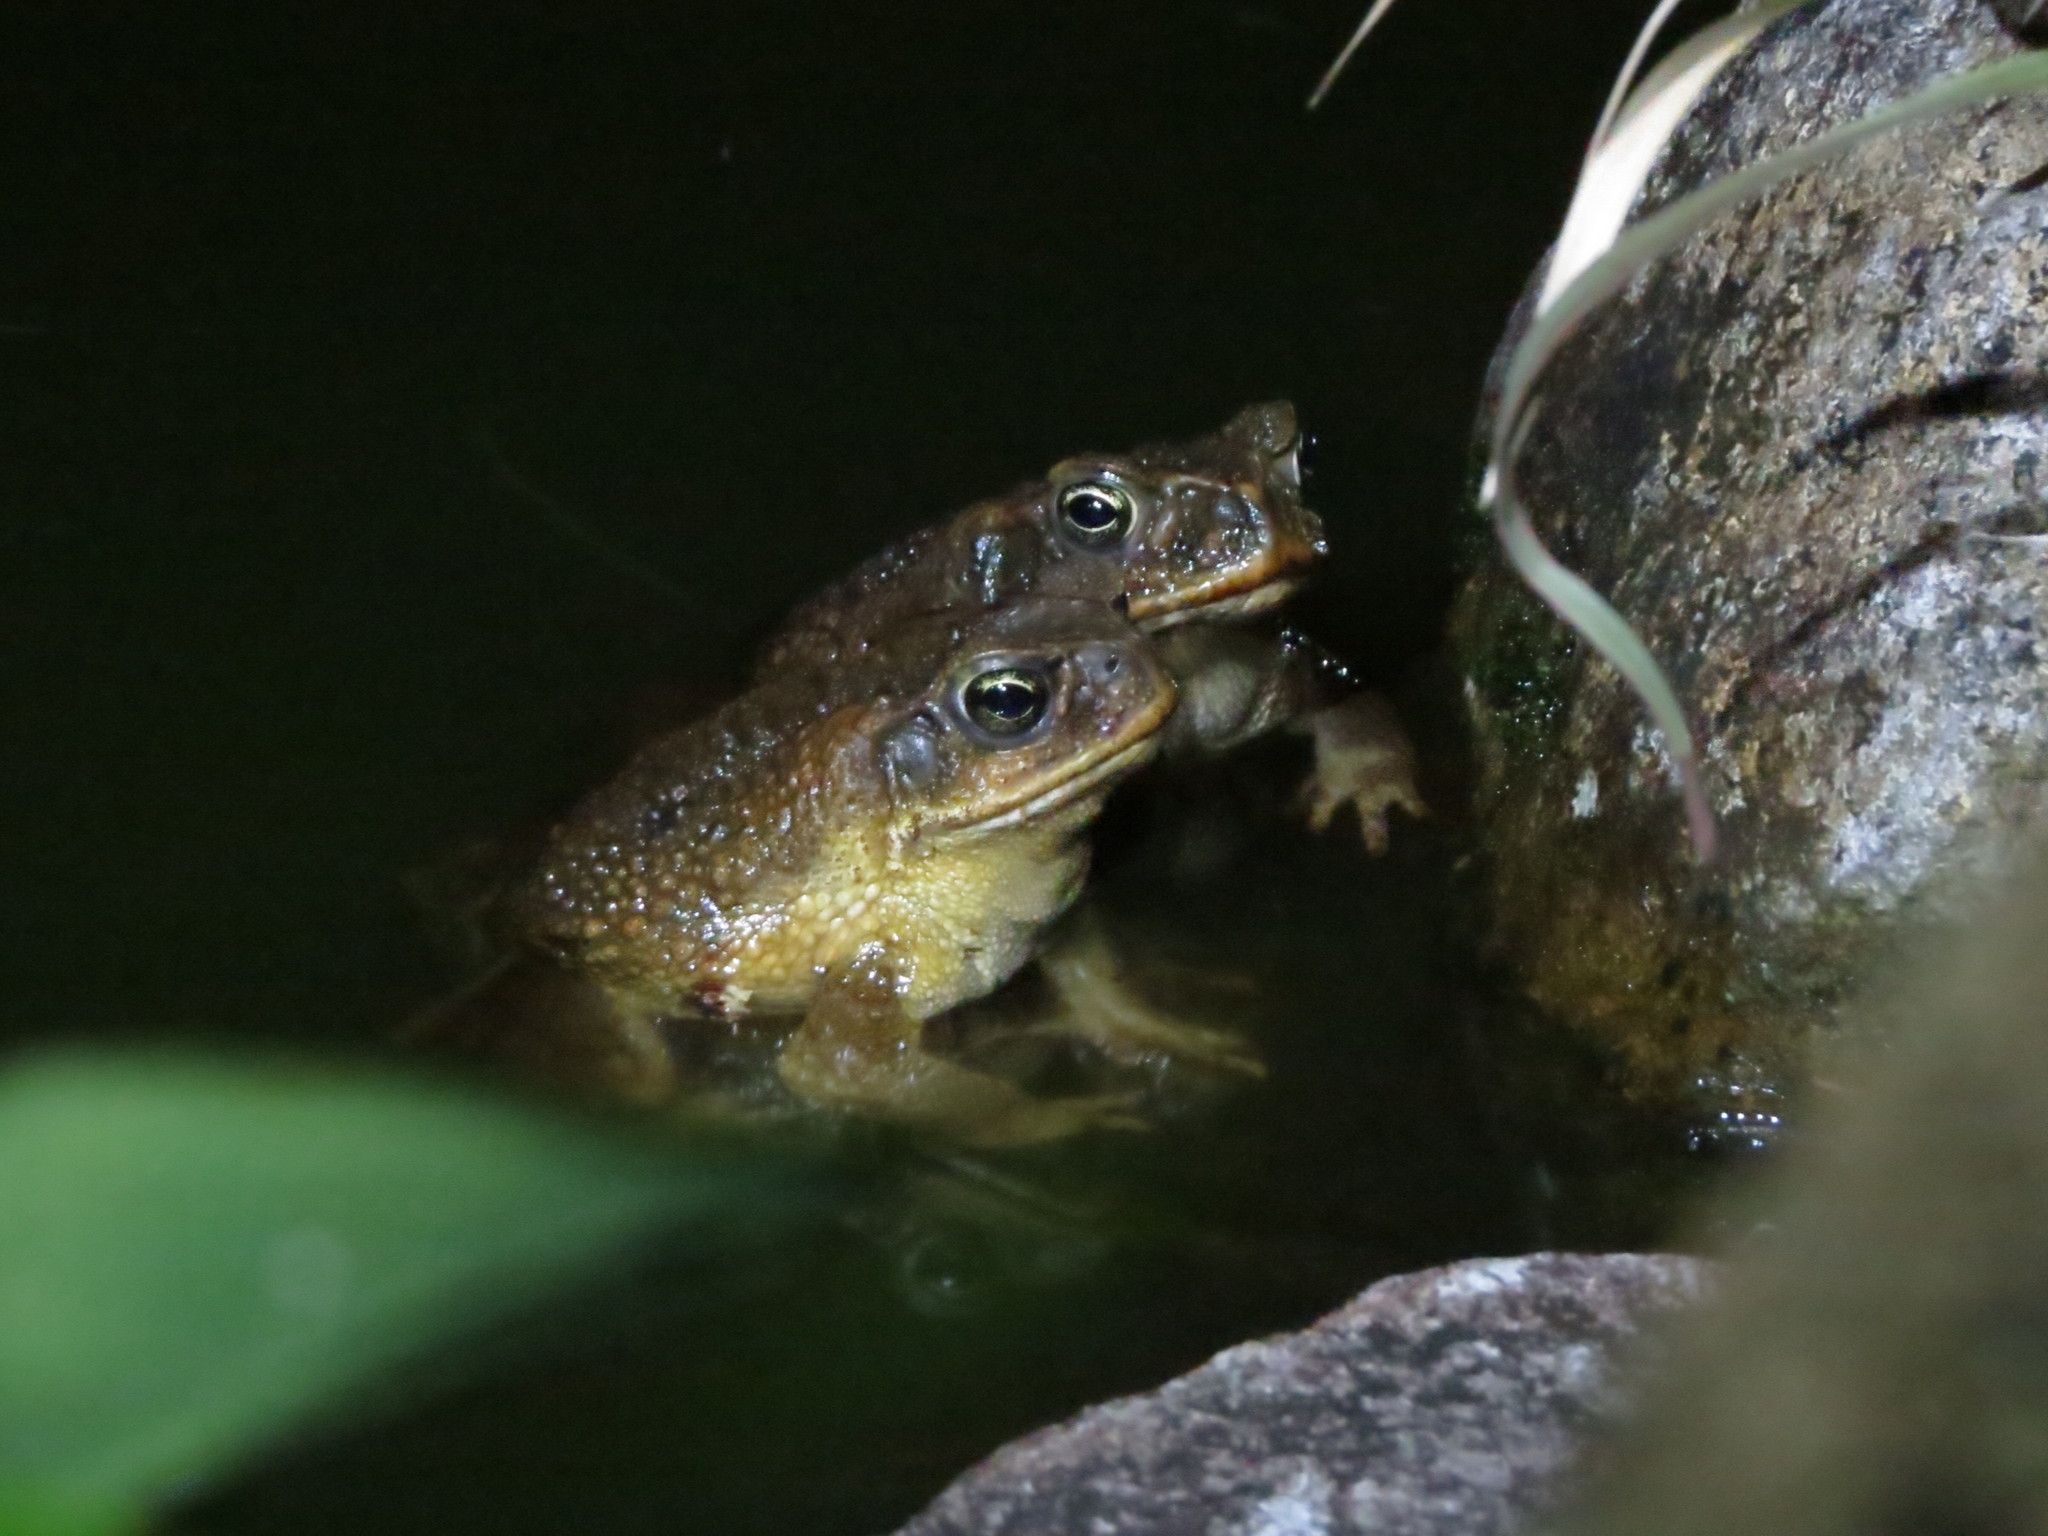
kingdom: Animalia
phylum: Chordata
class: Amphibia
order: Anura
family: Bufonidae
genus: Rhinella
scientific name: Rhinella marina
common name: Cane toad
